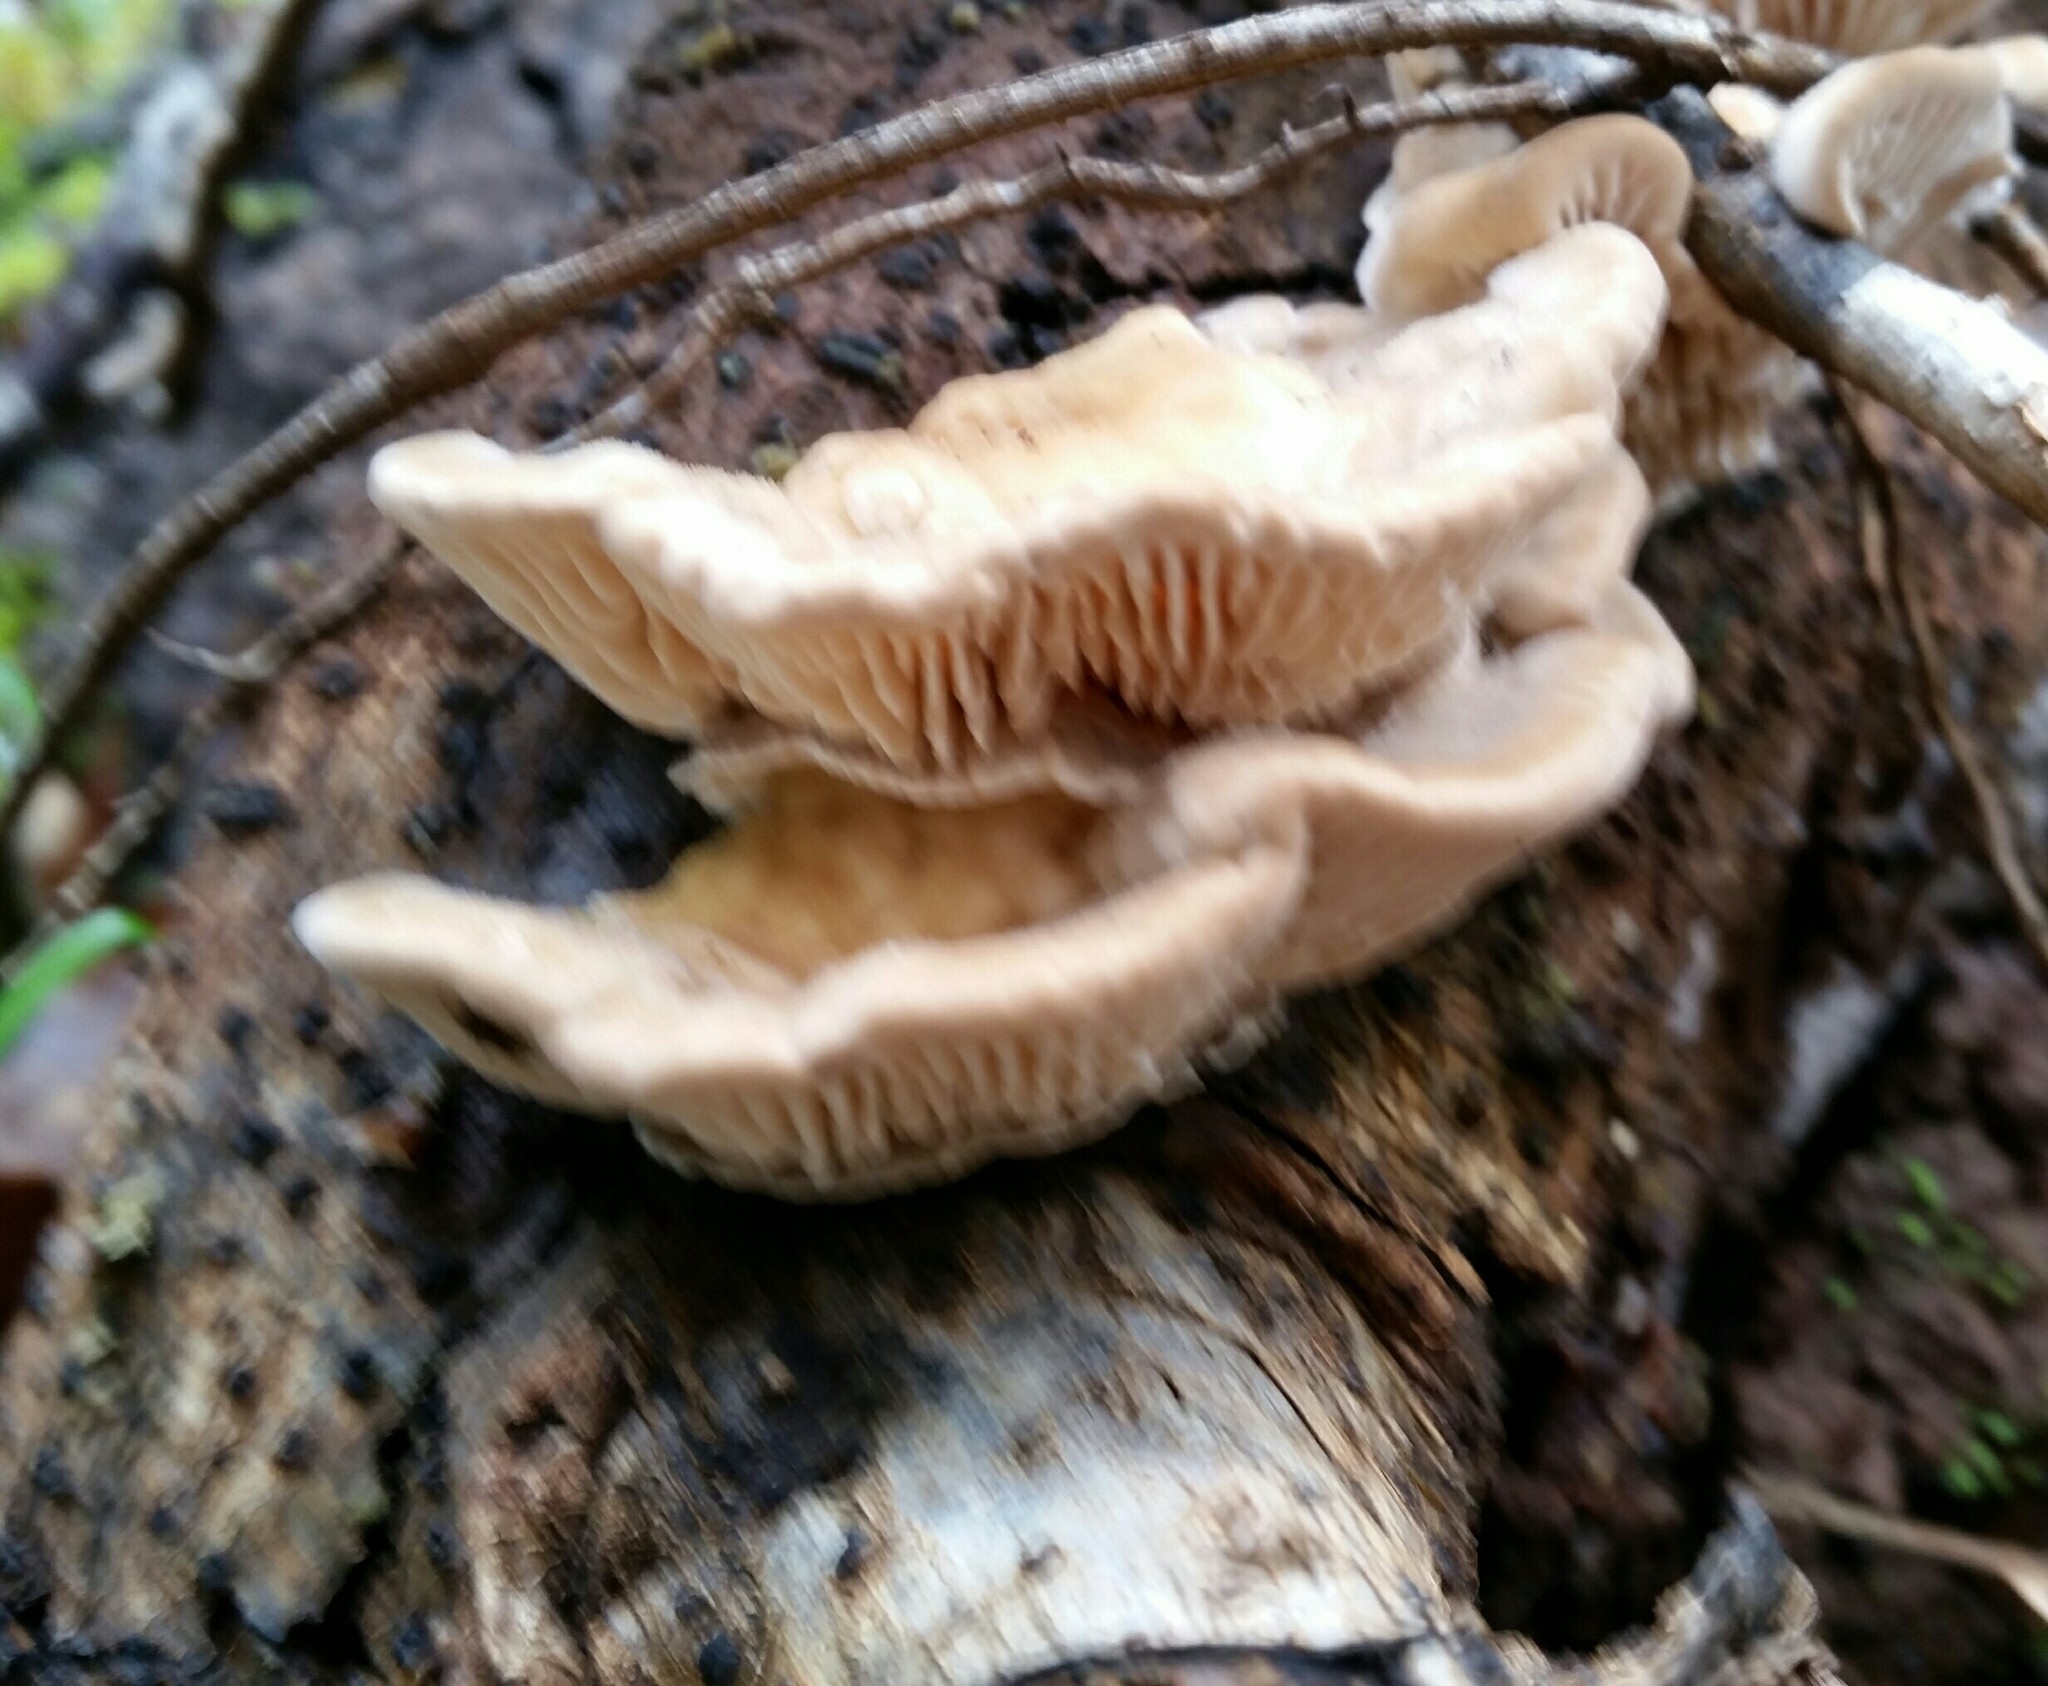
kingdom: Fungi
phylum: Basidiomycota
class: Agaricomycetes
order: Polyporales
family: Polyporaceae
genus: Lenzites
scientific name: Lenzites betulinus
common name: Birch mazegill
